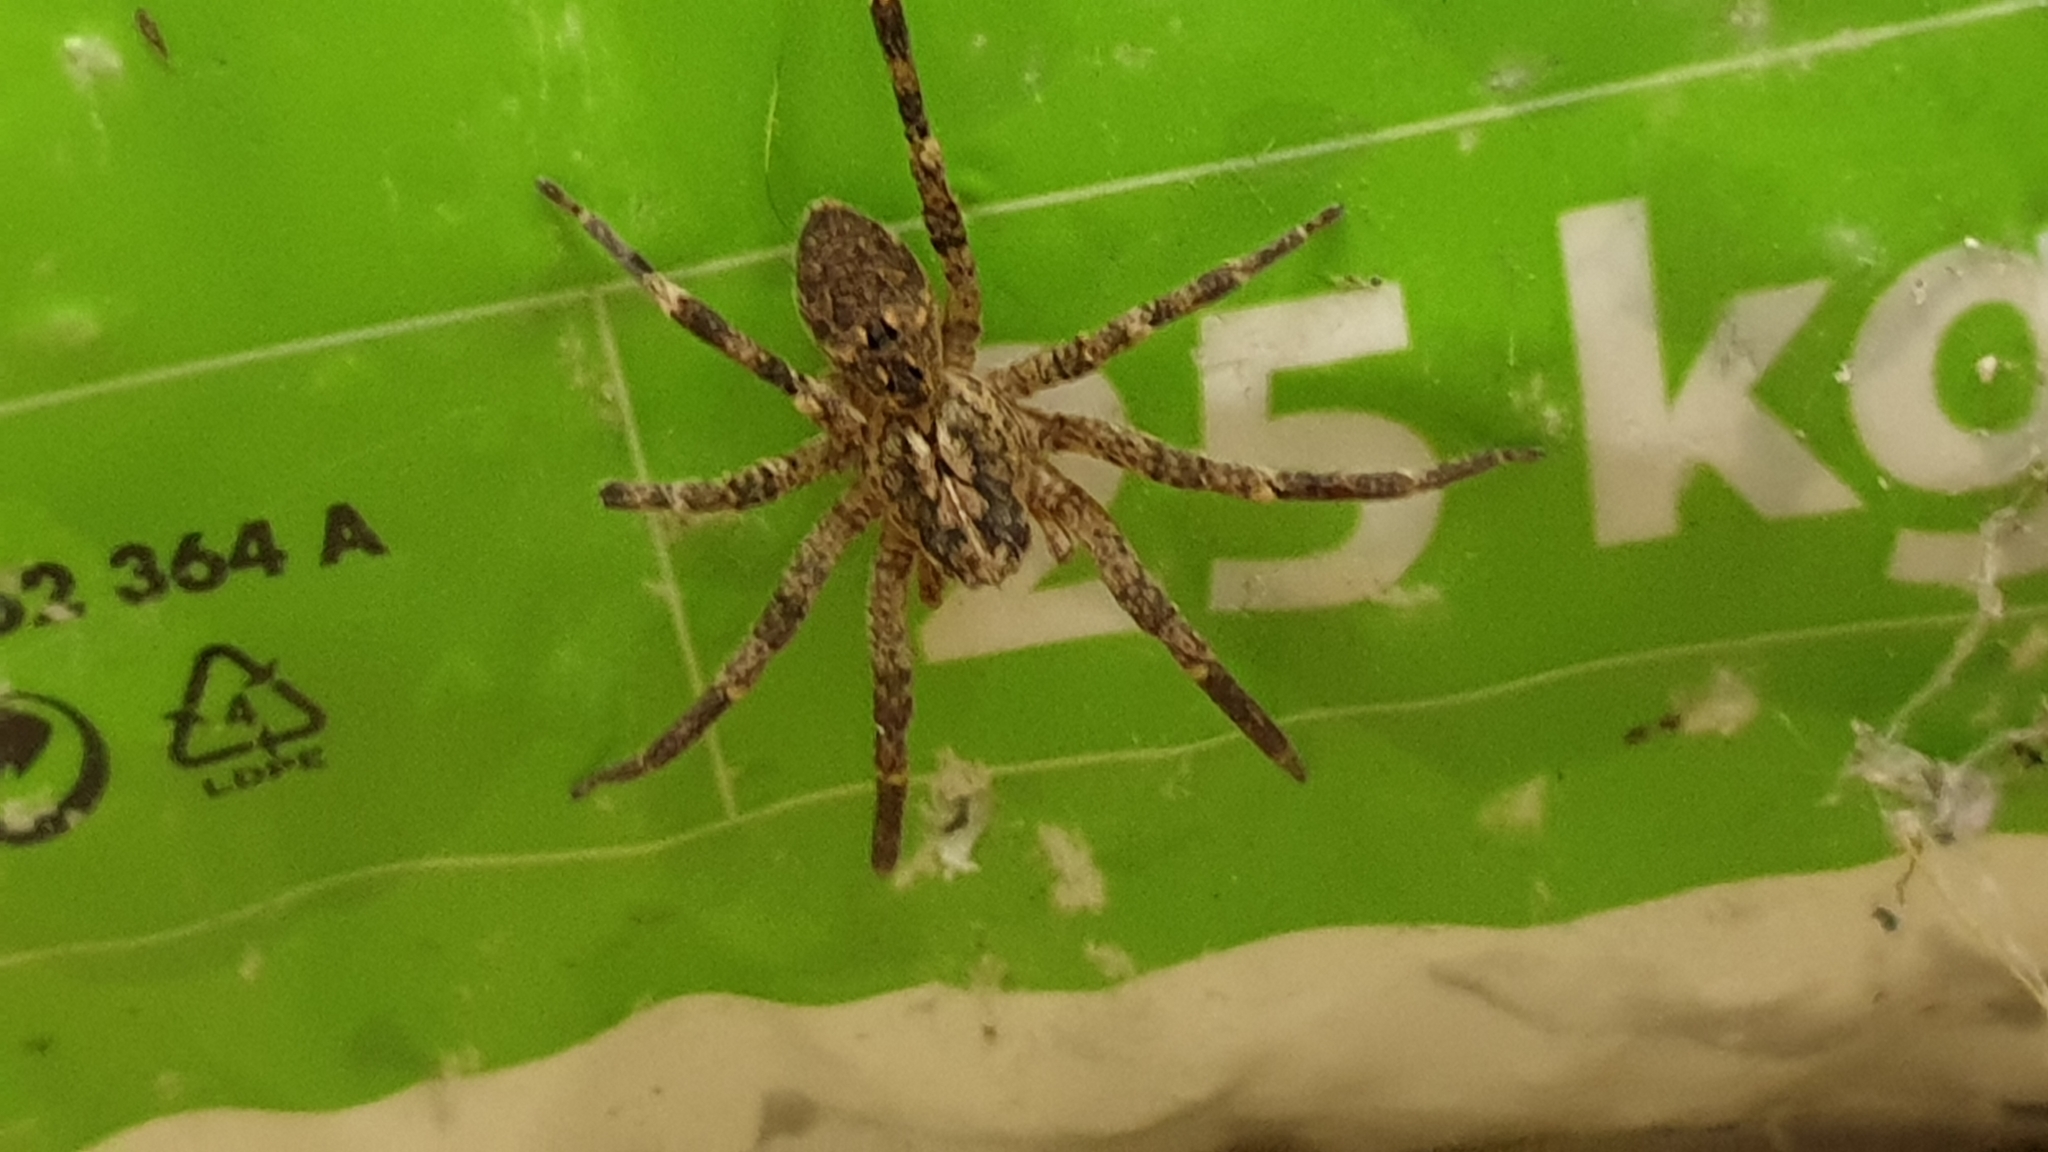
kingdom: Animalia
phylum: Arthropoda
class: Arachnida
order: Araneae
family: Zoropsidae
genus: Zoropsis
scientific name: Zoropsis spinimana
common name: Zoropsid spider
